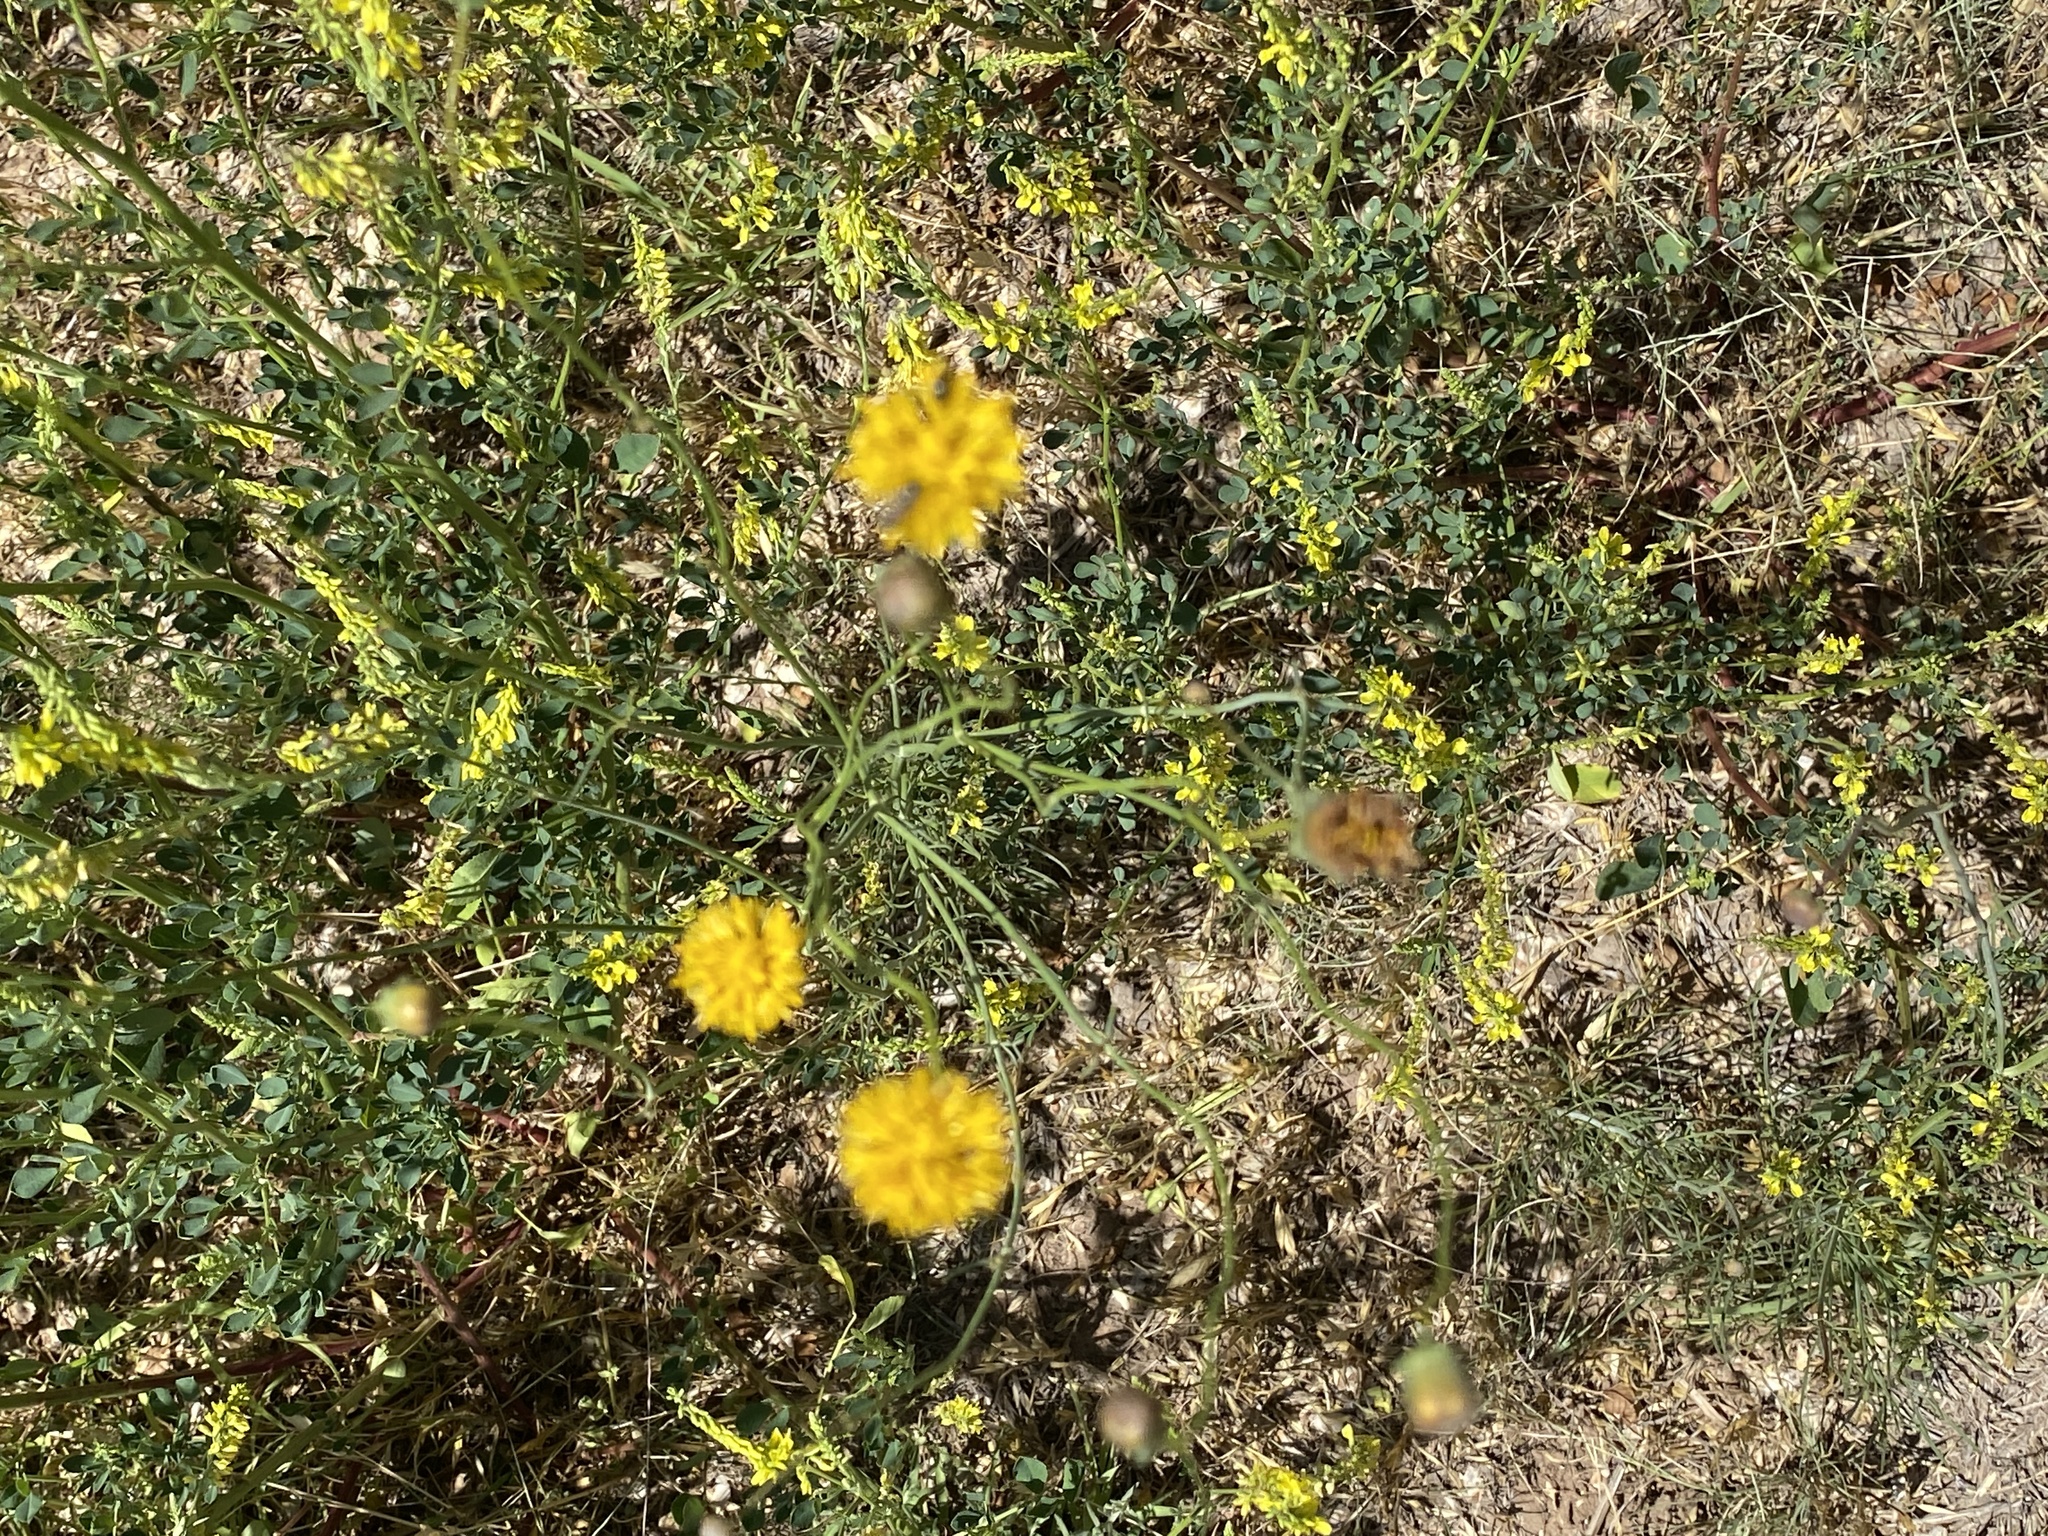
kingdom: Plantae
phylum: Tracheophyta
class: Magnoliopsida
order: Asterales
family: Asteraceae
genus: Thelesperma
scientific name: Thelesperma megapotamicum
